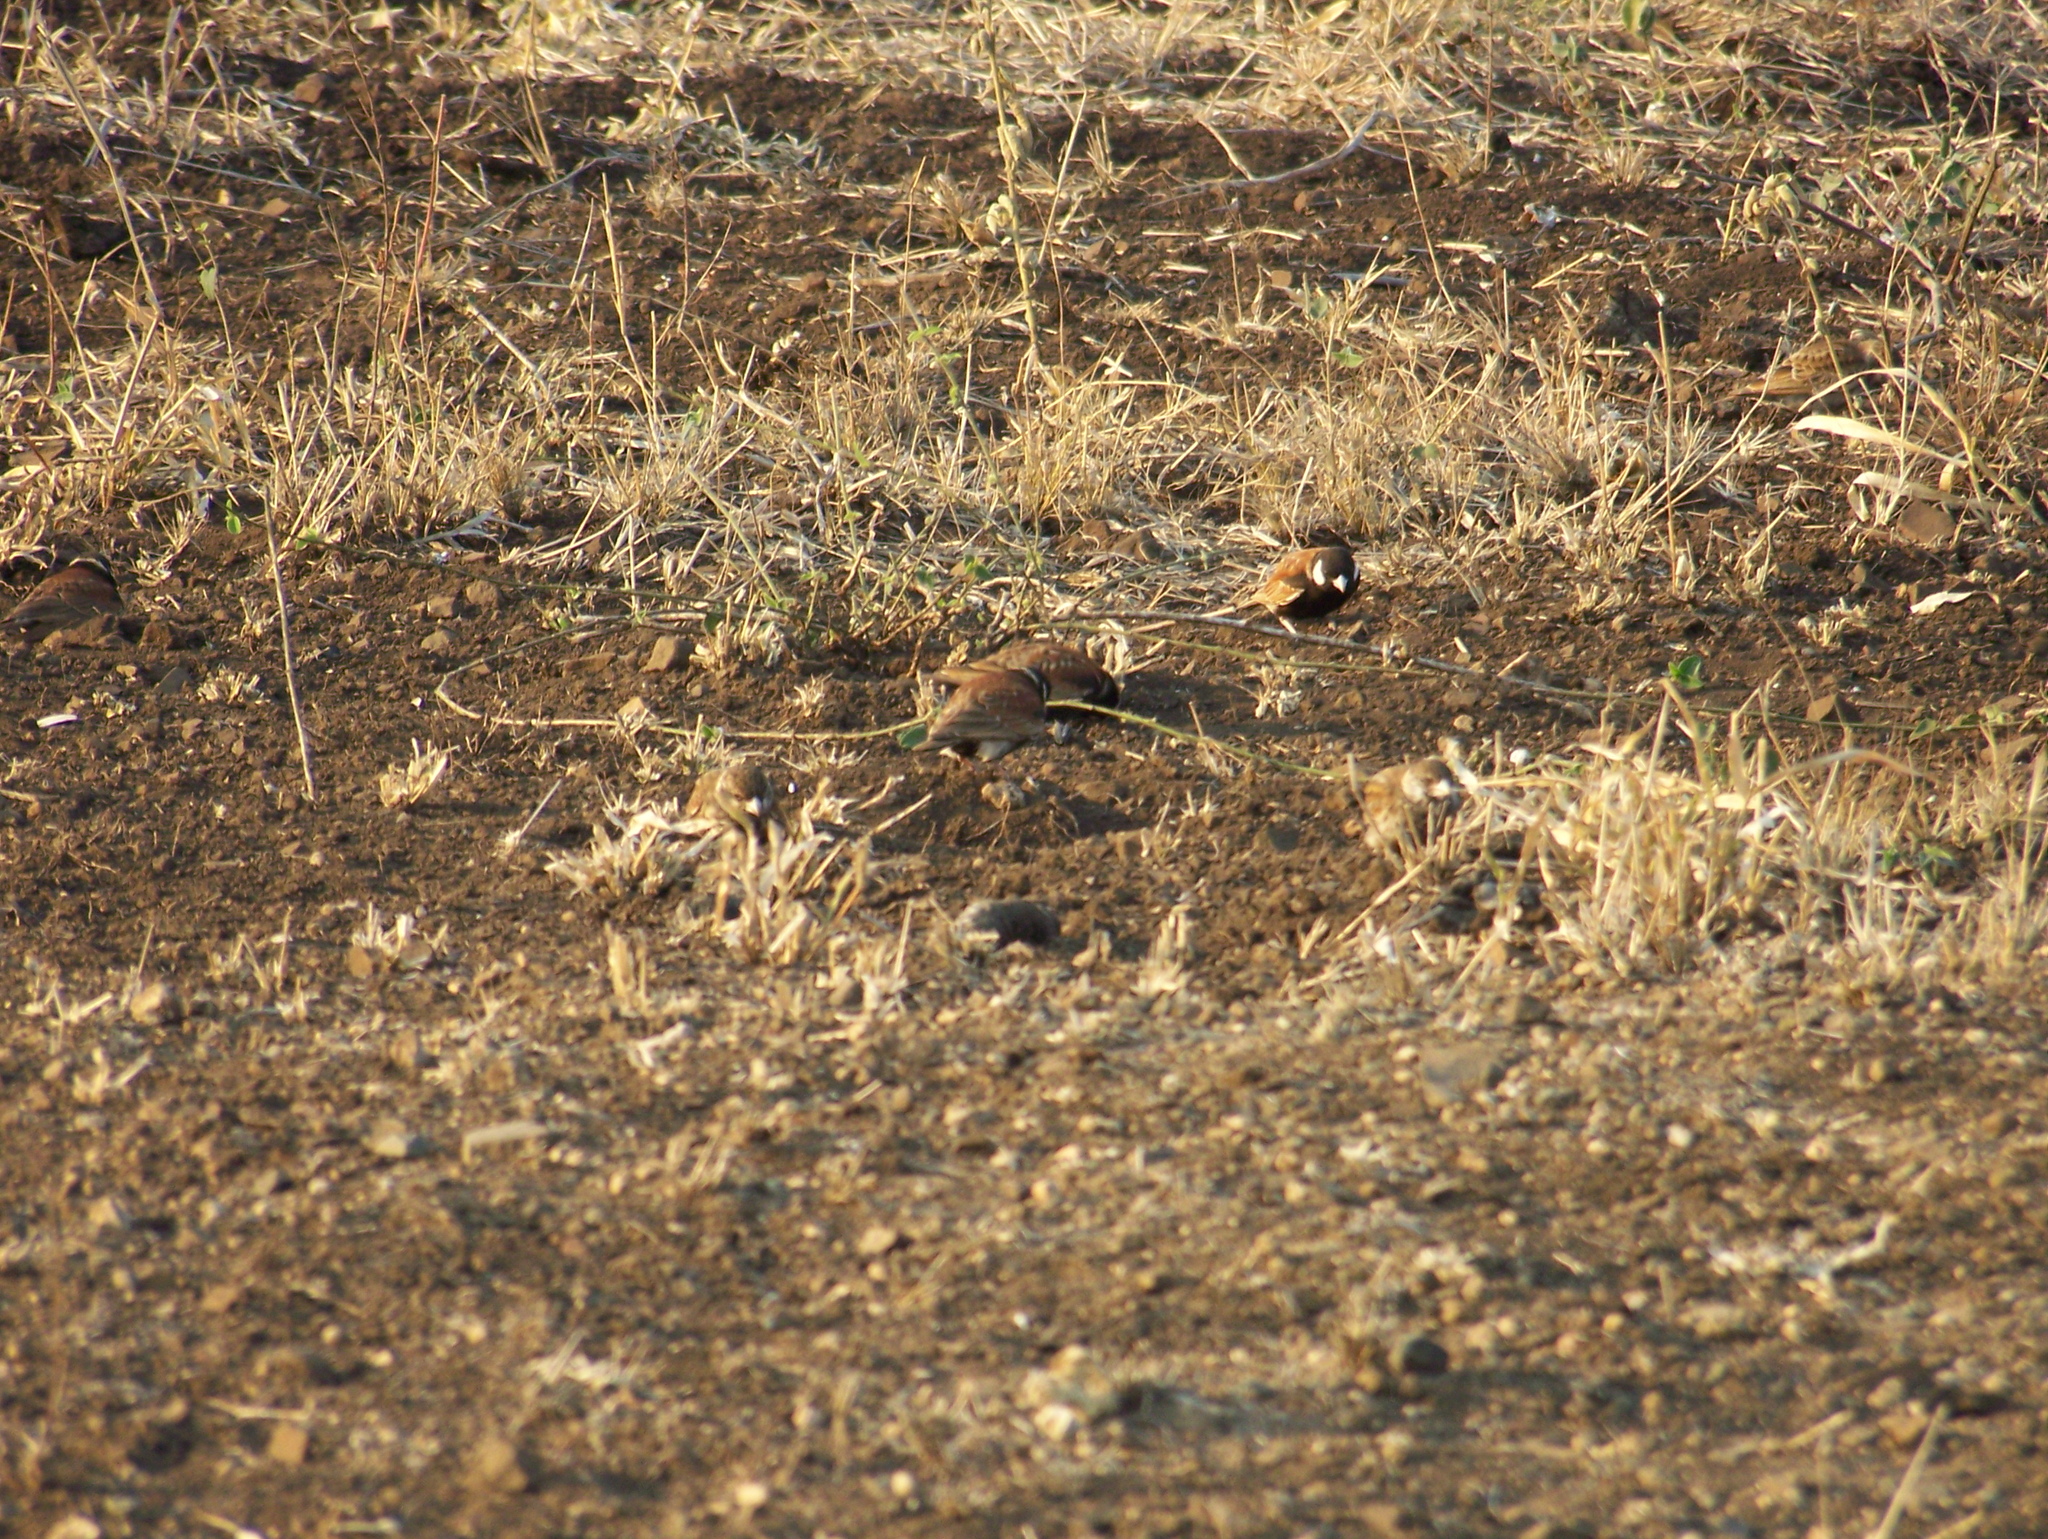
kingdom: Animalia
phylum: Chordata
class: Aves
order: Passeriformes
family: Alaudidae
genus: Eremopterix
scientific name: Eremopterix leucotis
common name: Chestnut-backed sparrow-lark
